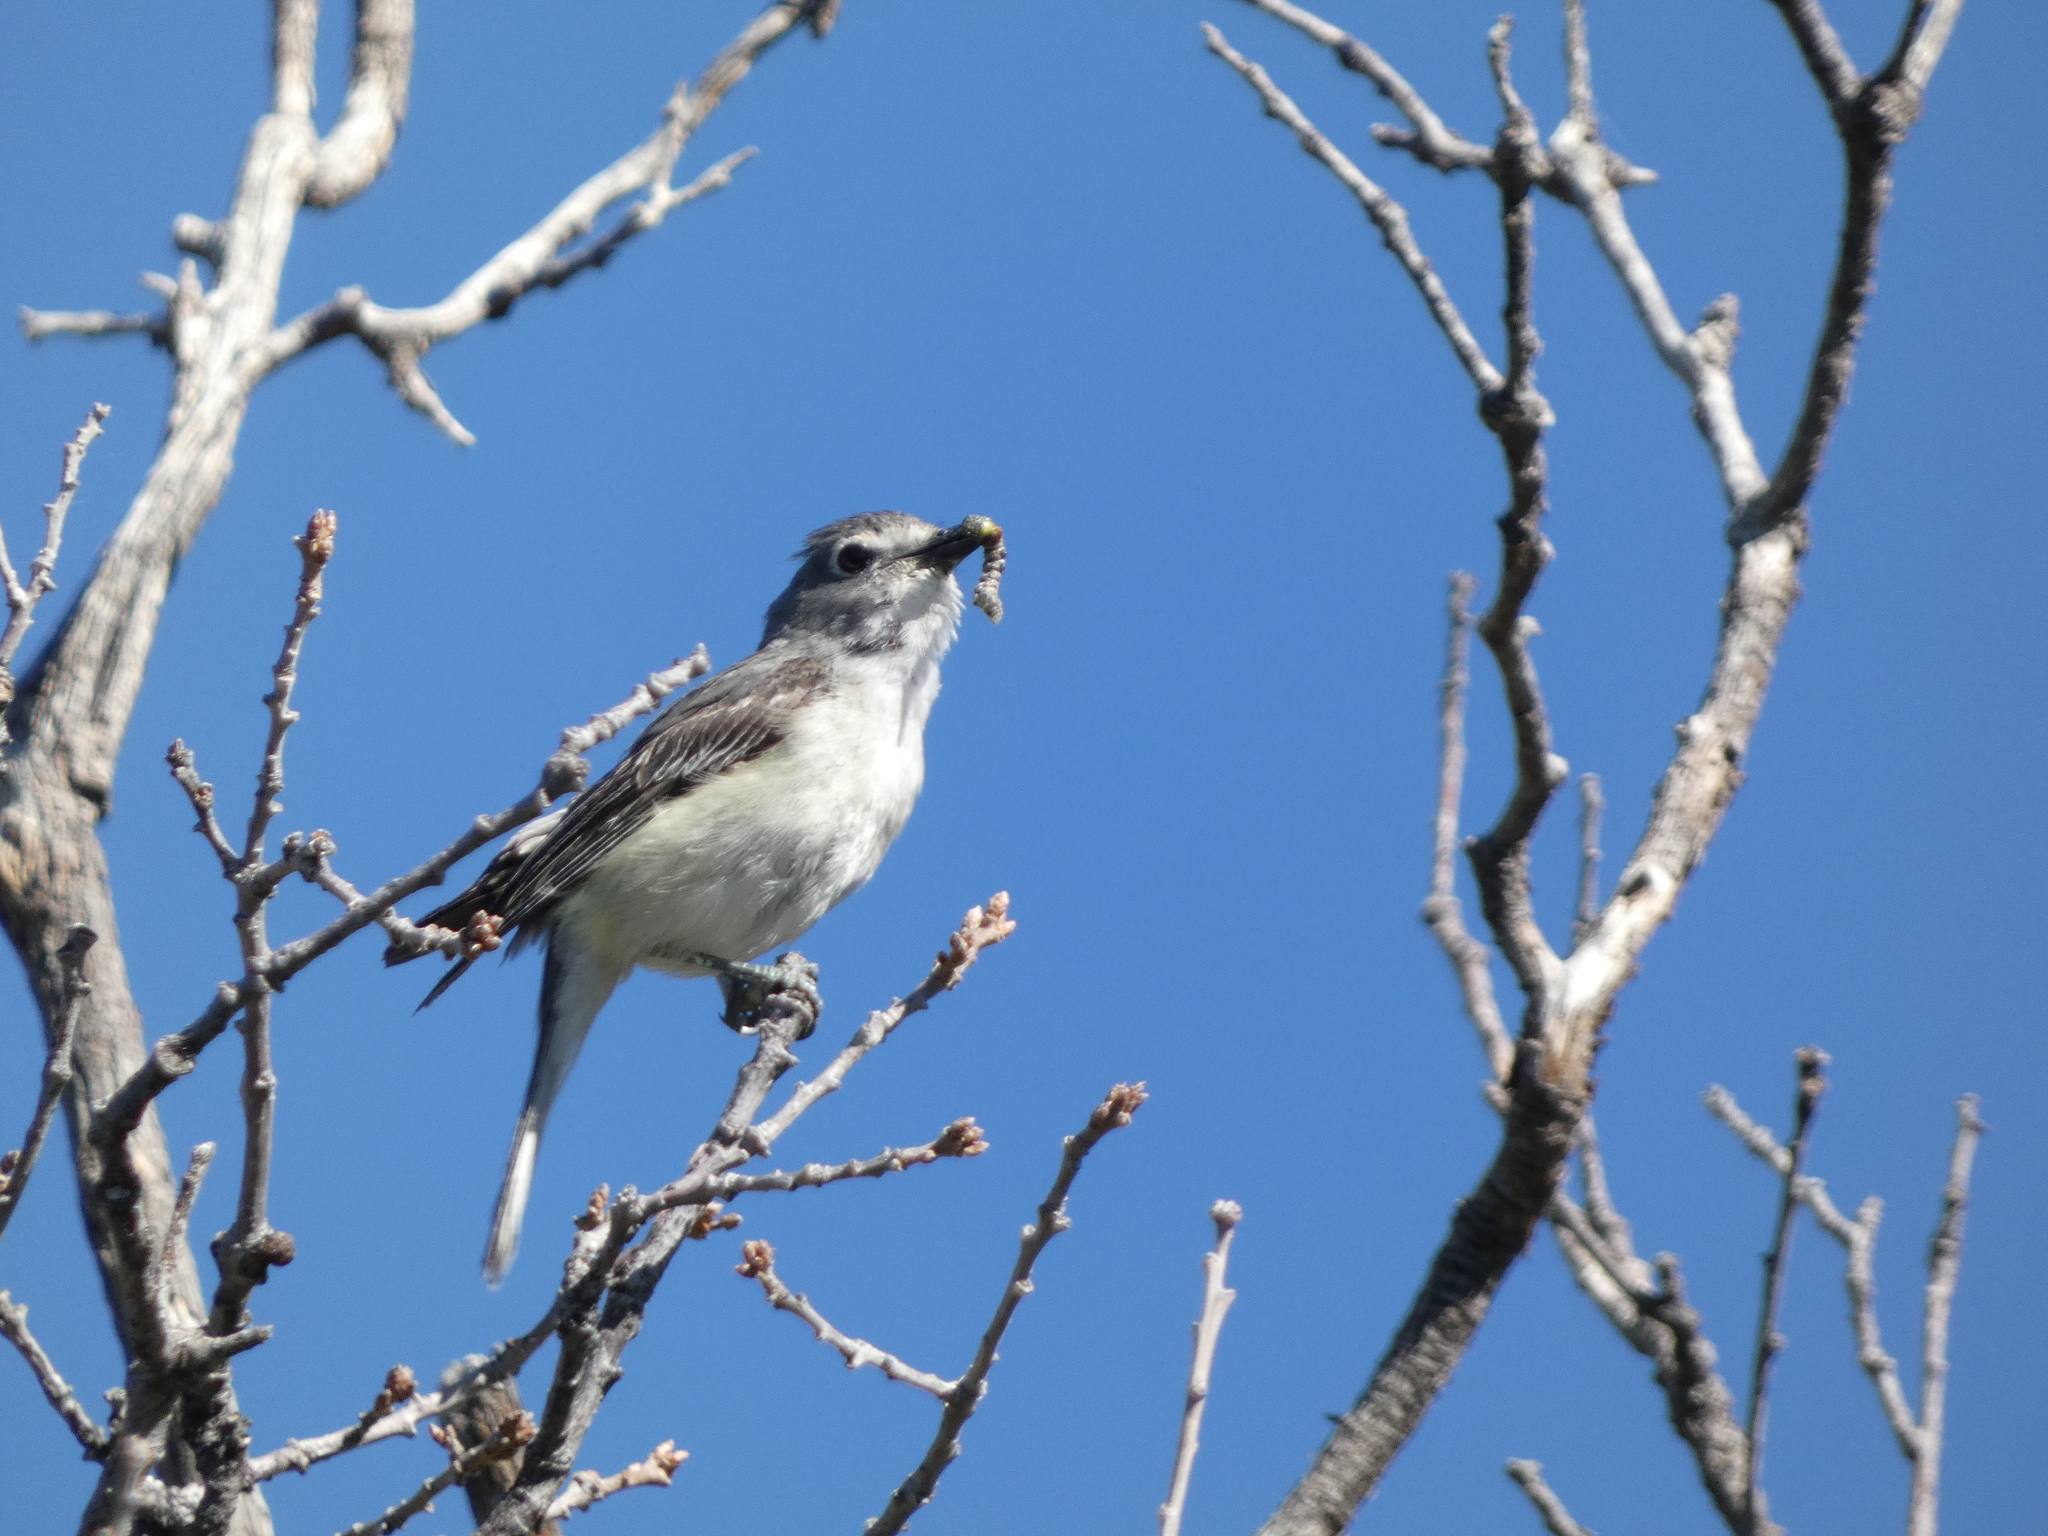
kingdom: Animalia
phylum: Chordata
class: Aves
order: Passeriformes
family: Vireonidae
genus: Vireo
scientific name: Vireo vicinior
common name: Gray vireo
